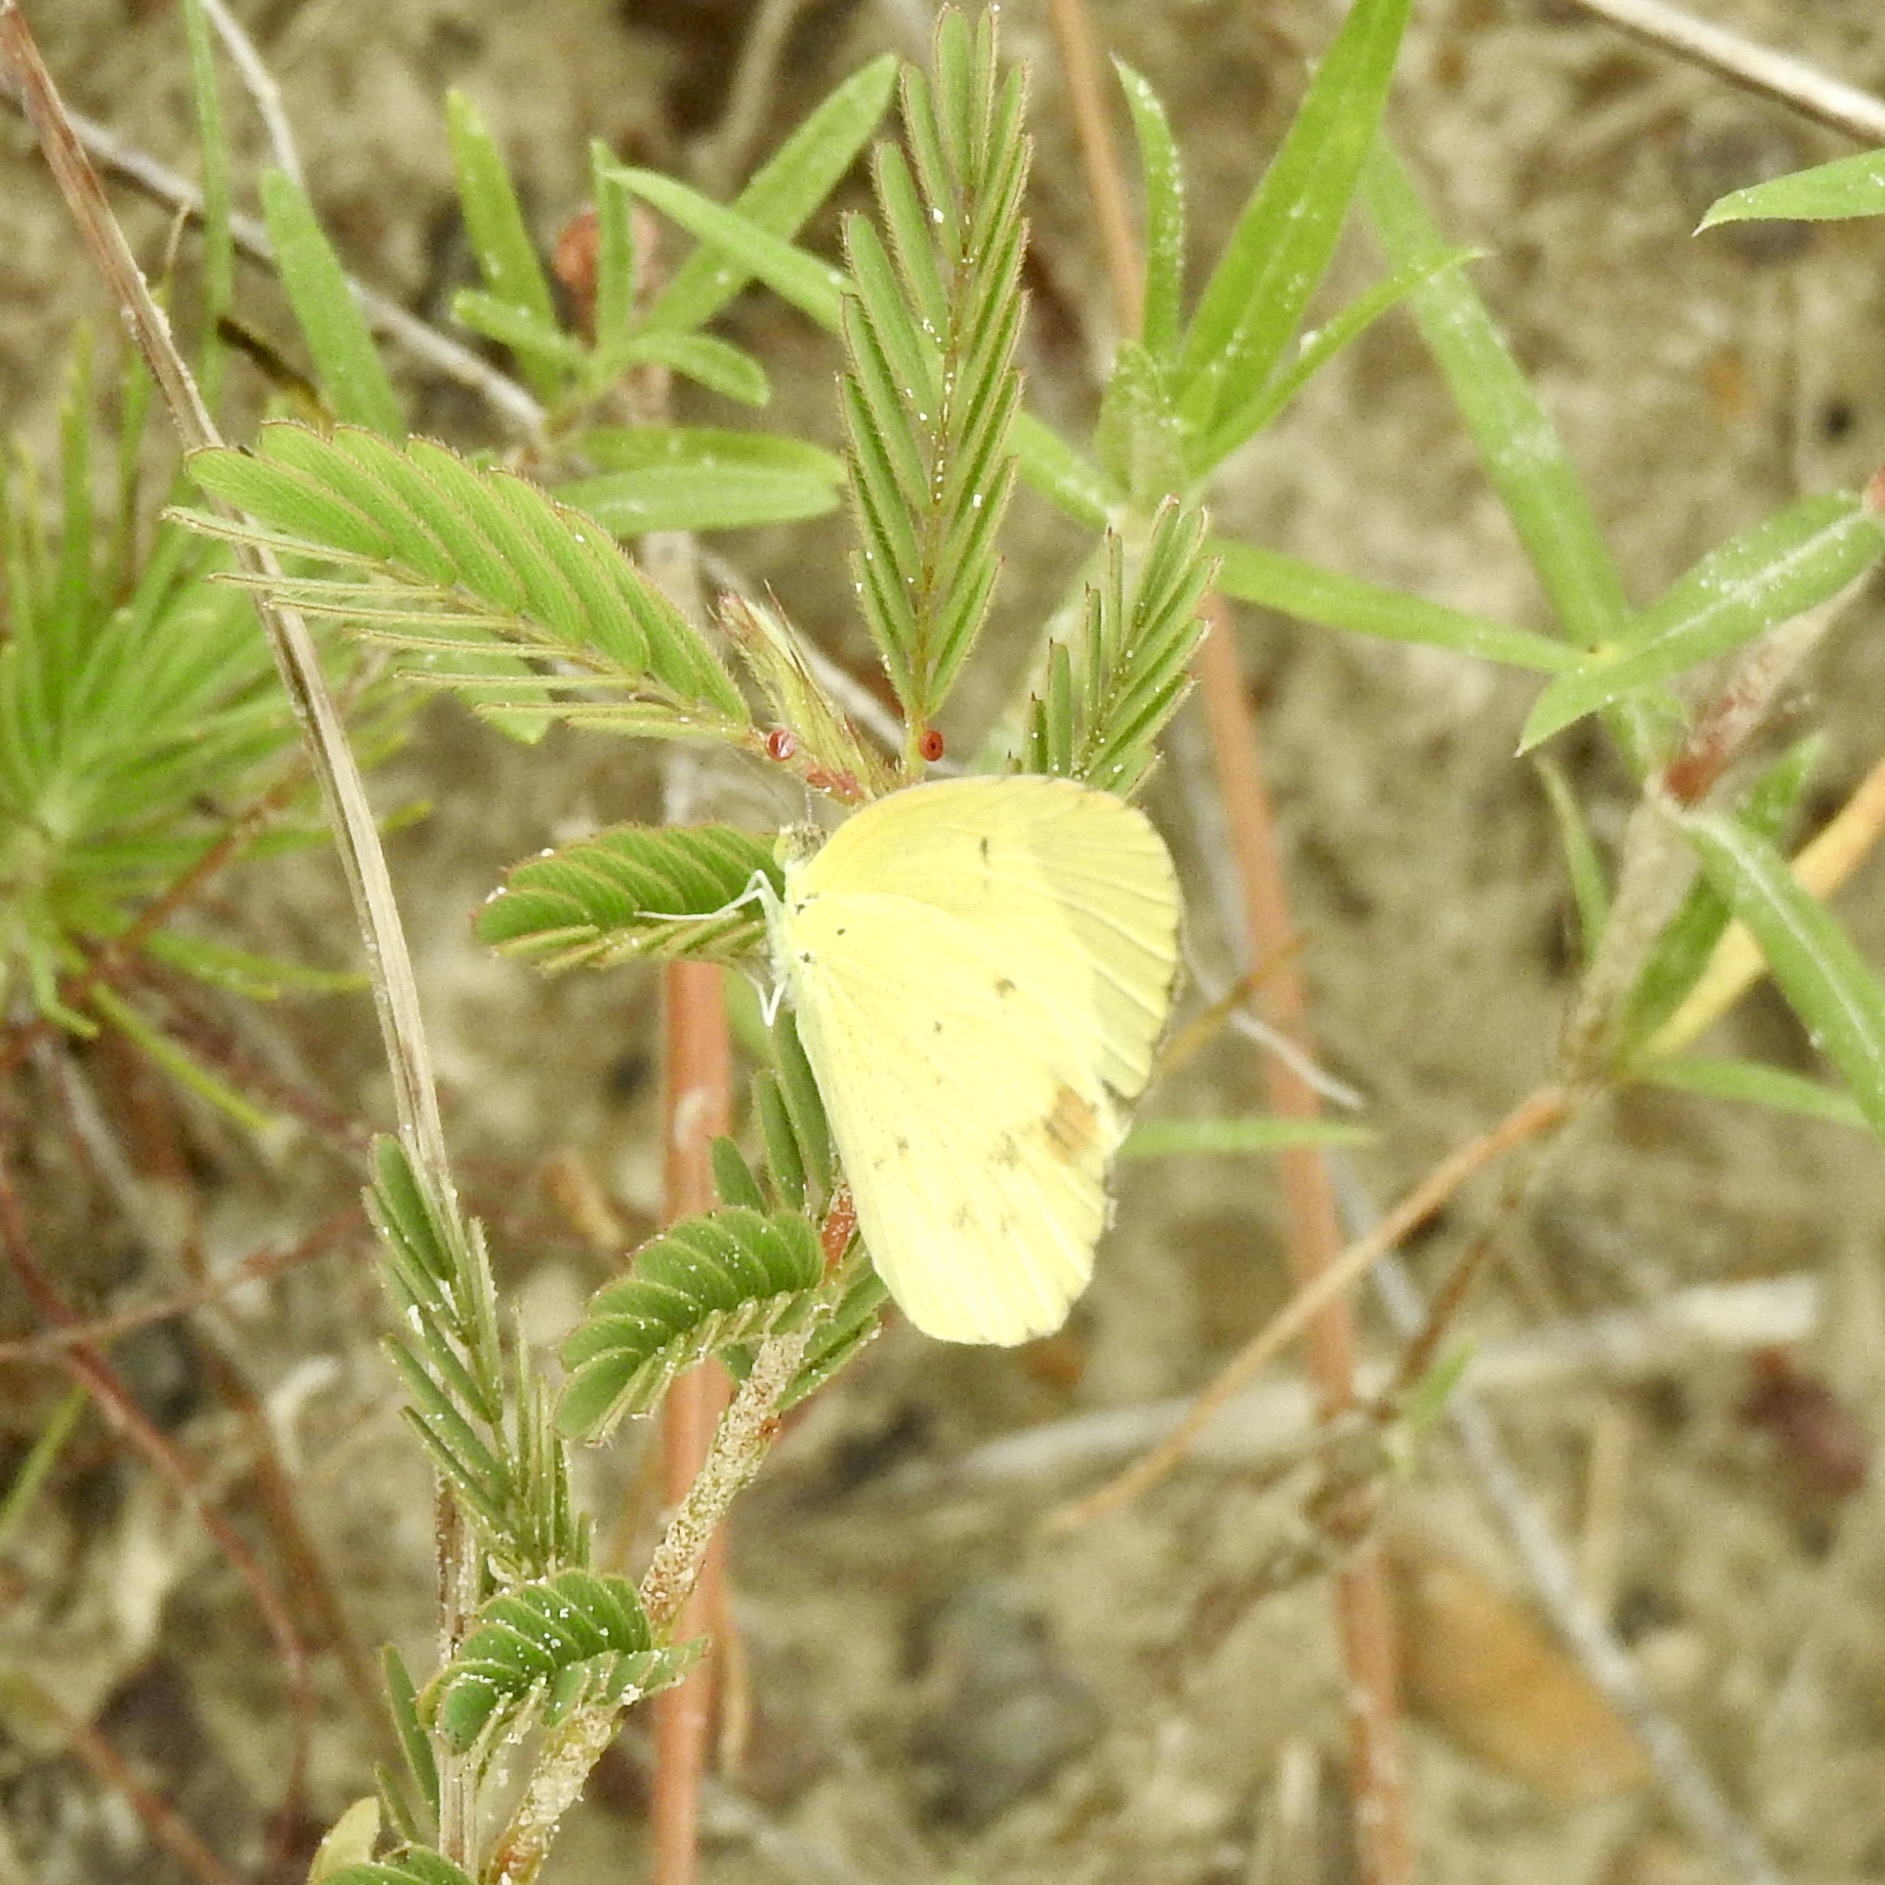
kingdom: Animalia
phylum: Arthropoda
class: Insecta
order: Lepidoptera
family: Pieridae
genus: Pyrisitia
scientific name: Pyrisitia lisa
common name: Little yellow
